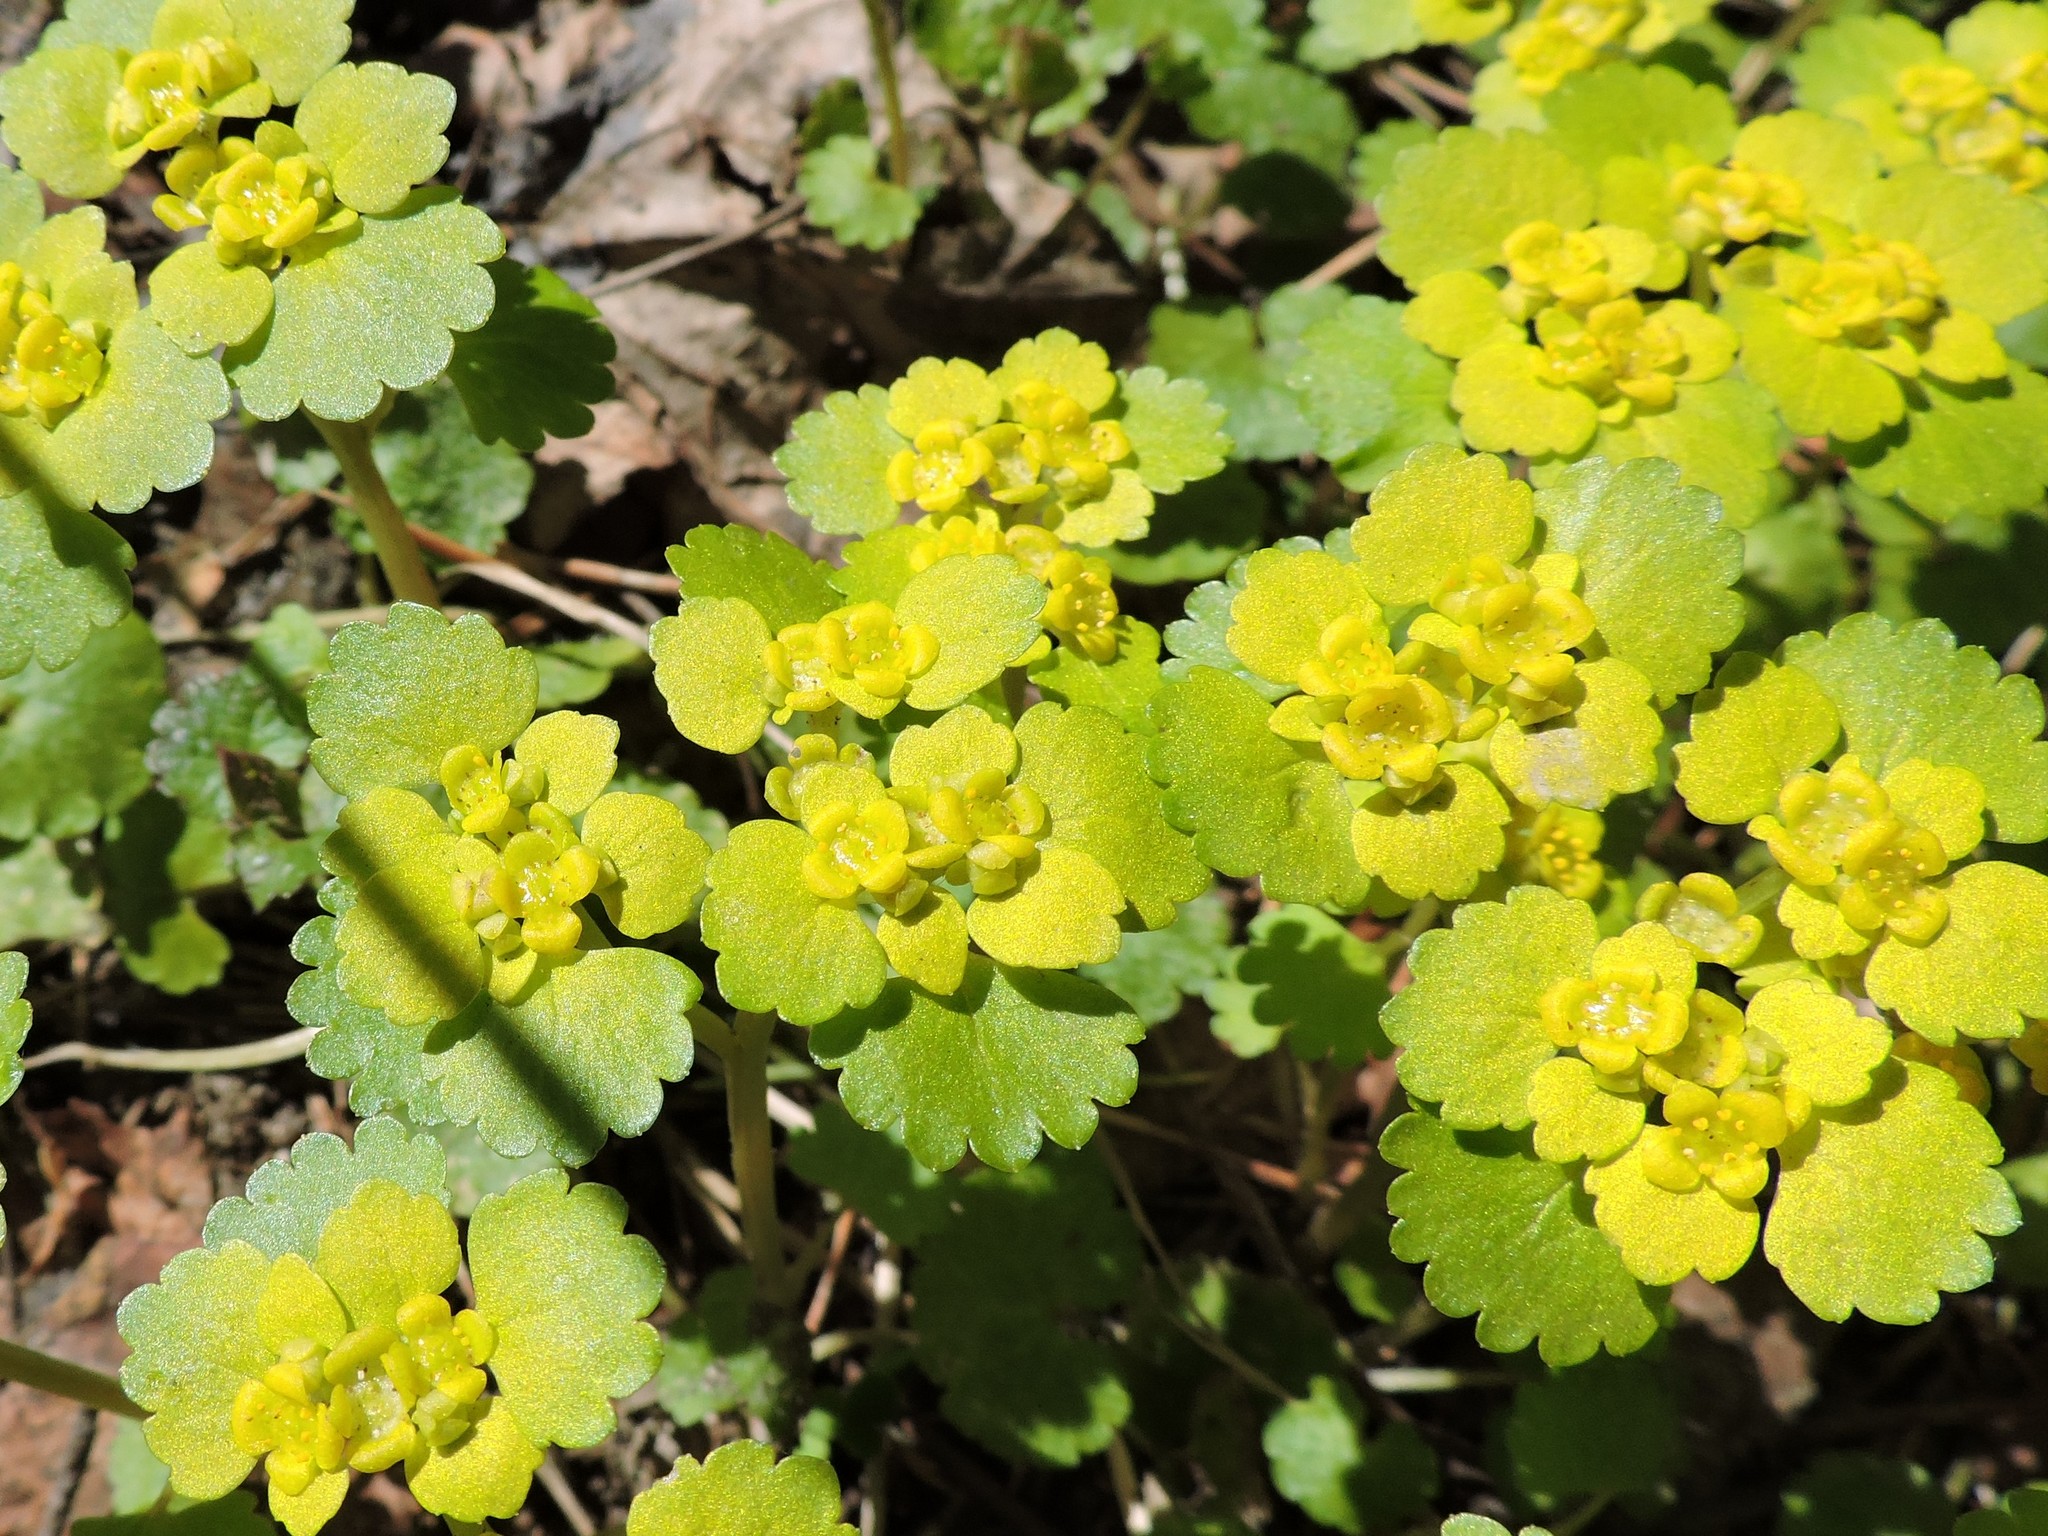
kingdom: Plantae
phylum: Tracheophyta
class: Magnoliopsida
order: Saxifragales
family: Saxifragaceae
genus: Chrysosplenium
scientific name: Chrysosplenium alternifolium
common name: Alternate-leaved golden-saxifrage
